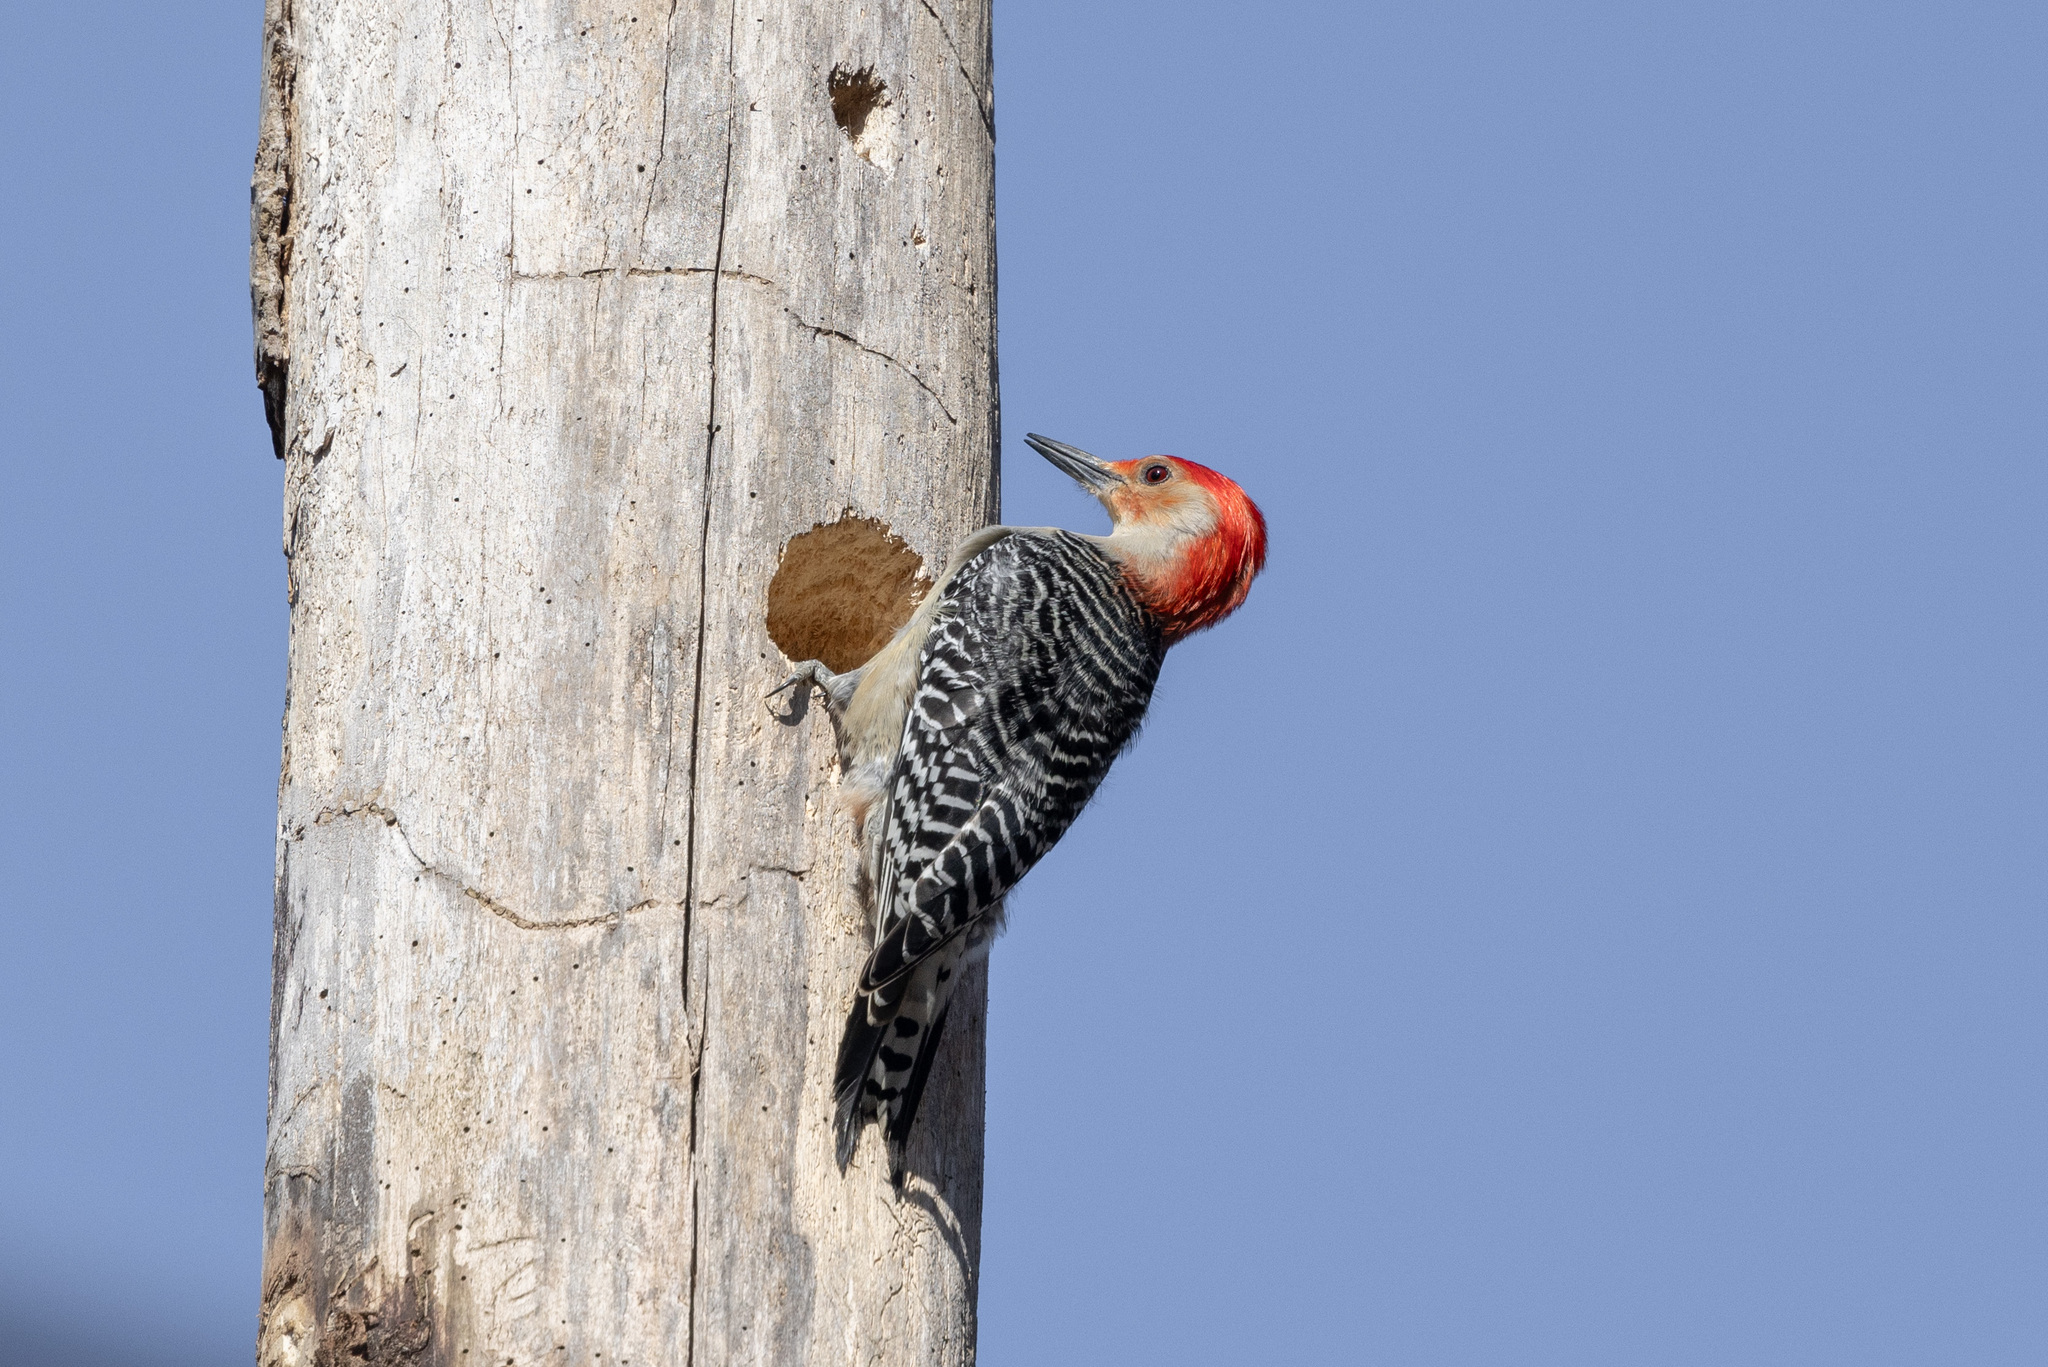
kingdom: Animalia
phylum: Chordata
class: Aves
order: Piciformes
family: Picidae
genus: Melanerpes
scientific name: Melanerpes carolinus
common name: Red-bellied woodpecker
